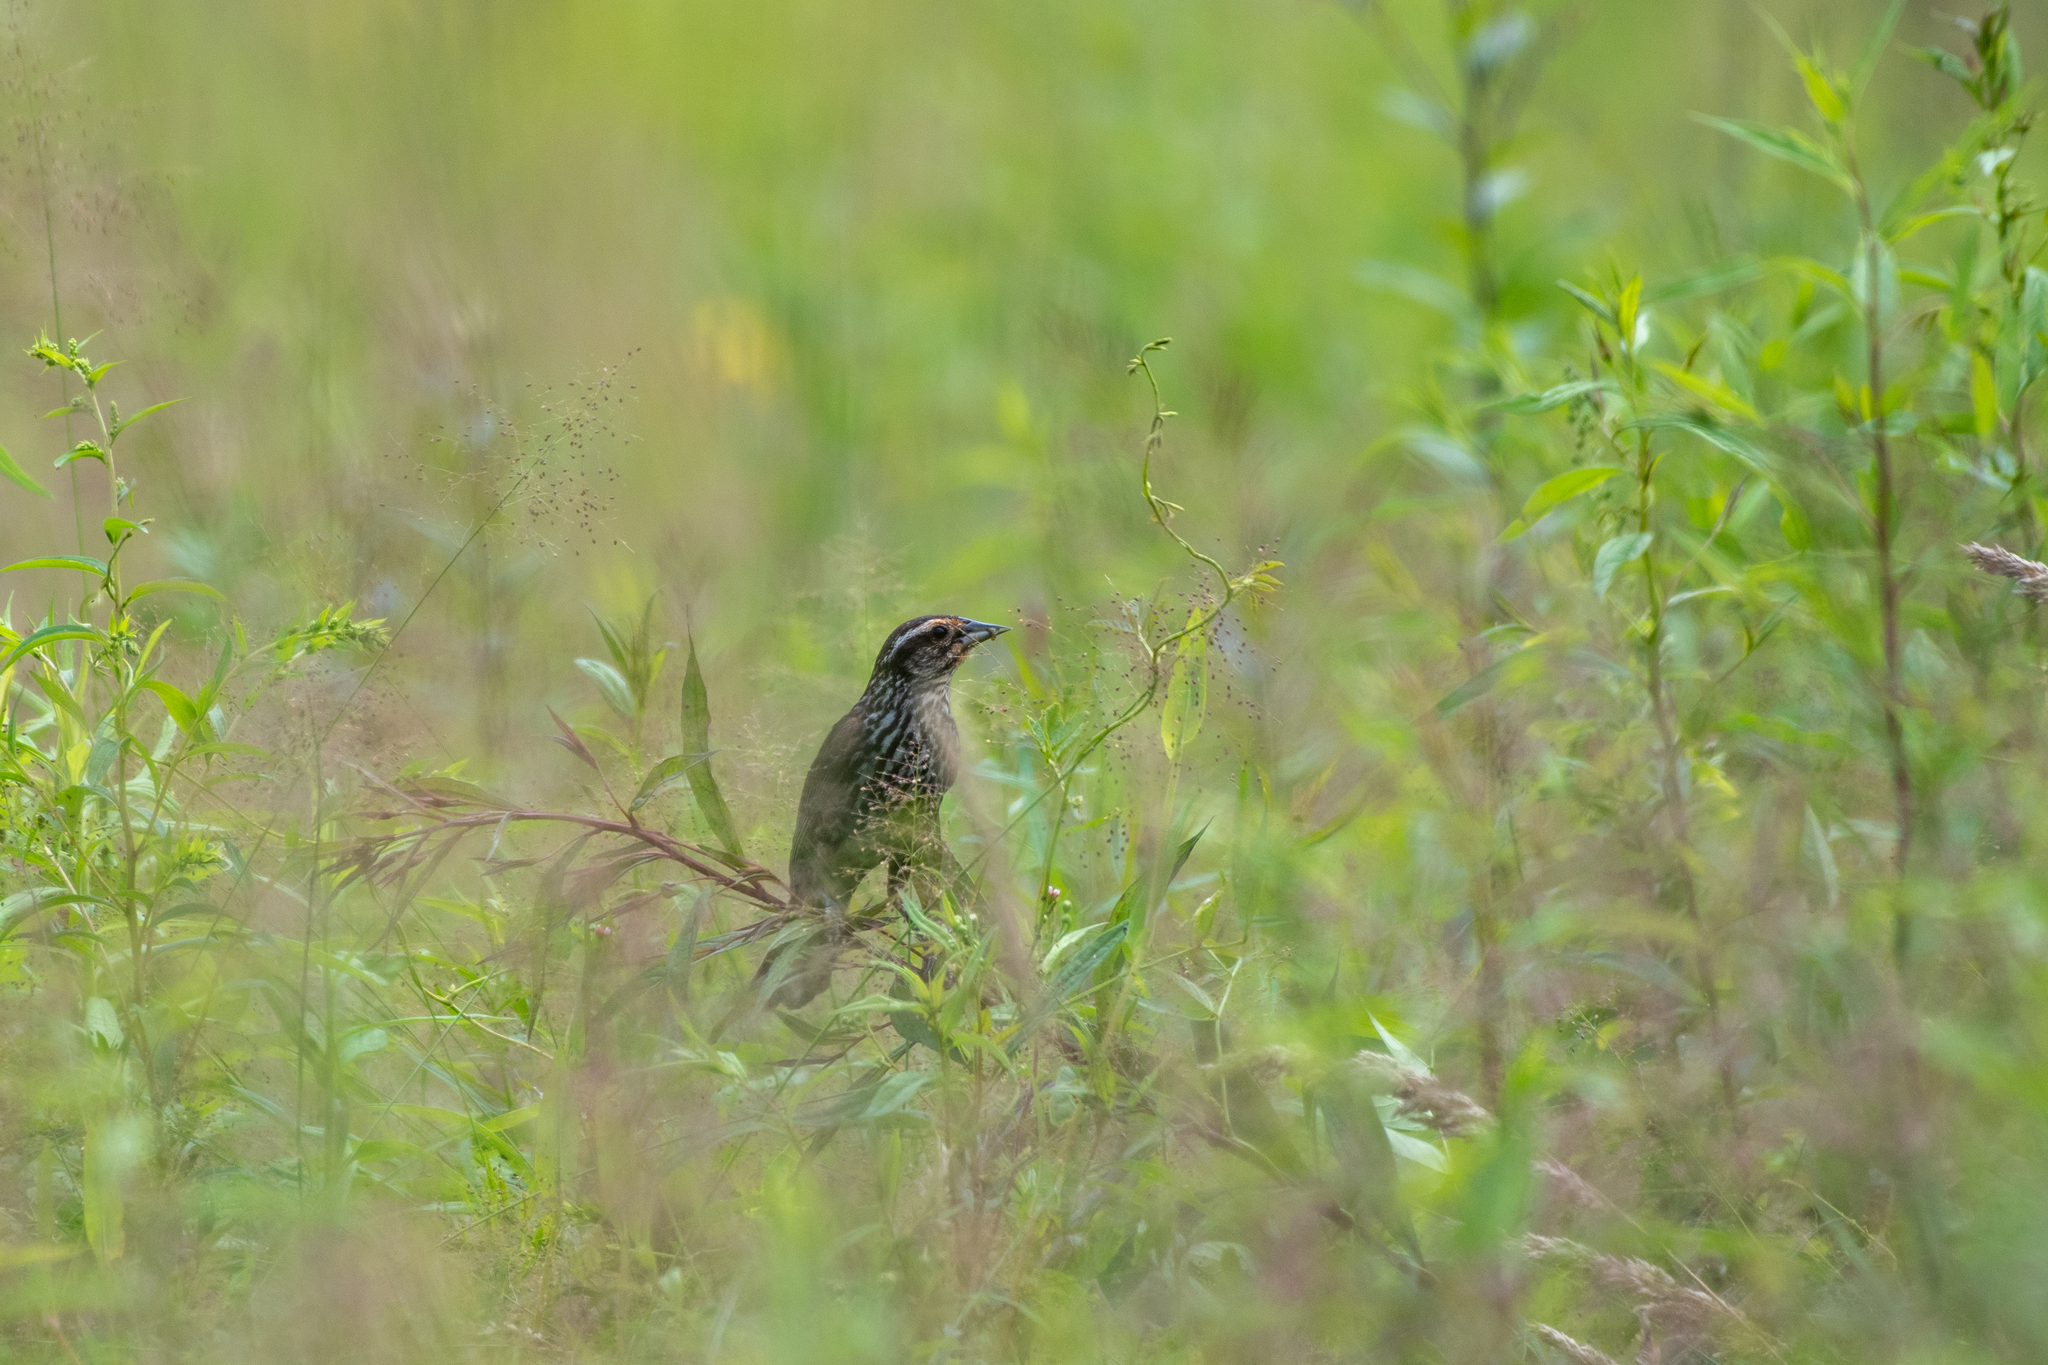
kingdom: Animalia
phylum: Chordata
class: Aves
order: Passeriformes
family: Icteridae
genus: Agelaius
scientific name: Agelaius phoeniceus
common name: Red-winged blackbird
